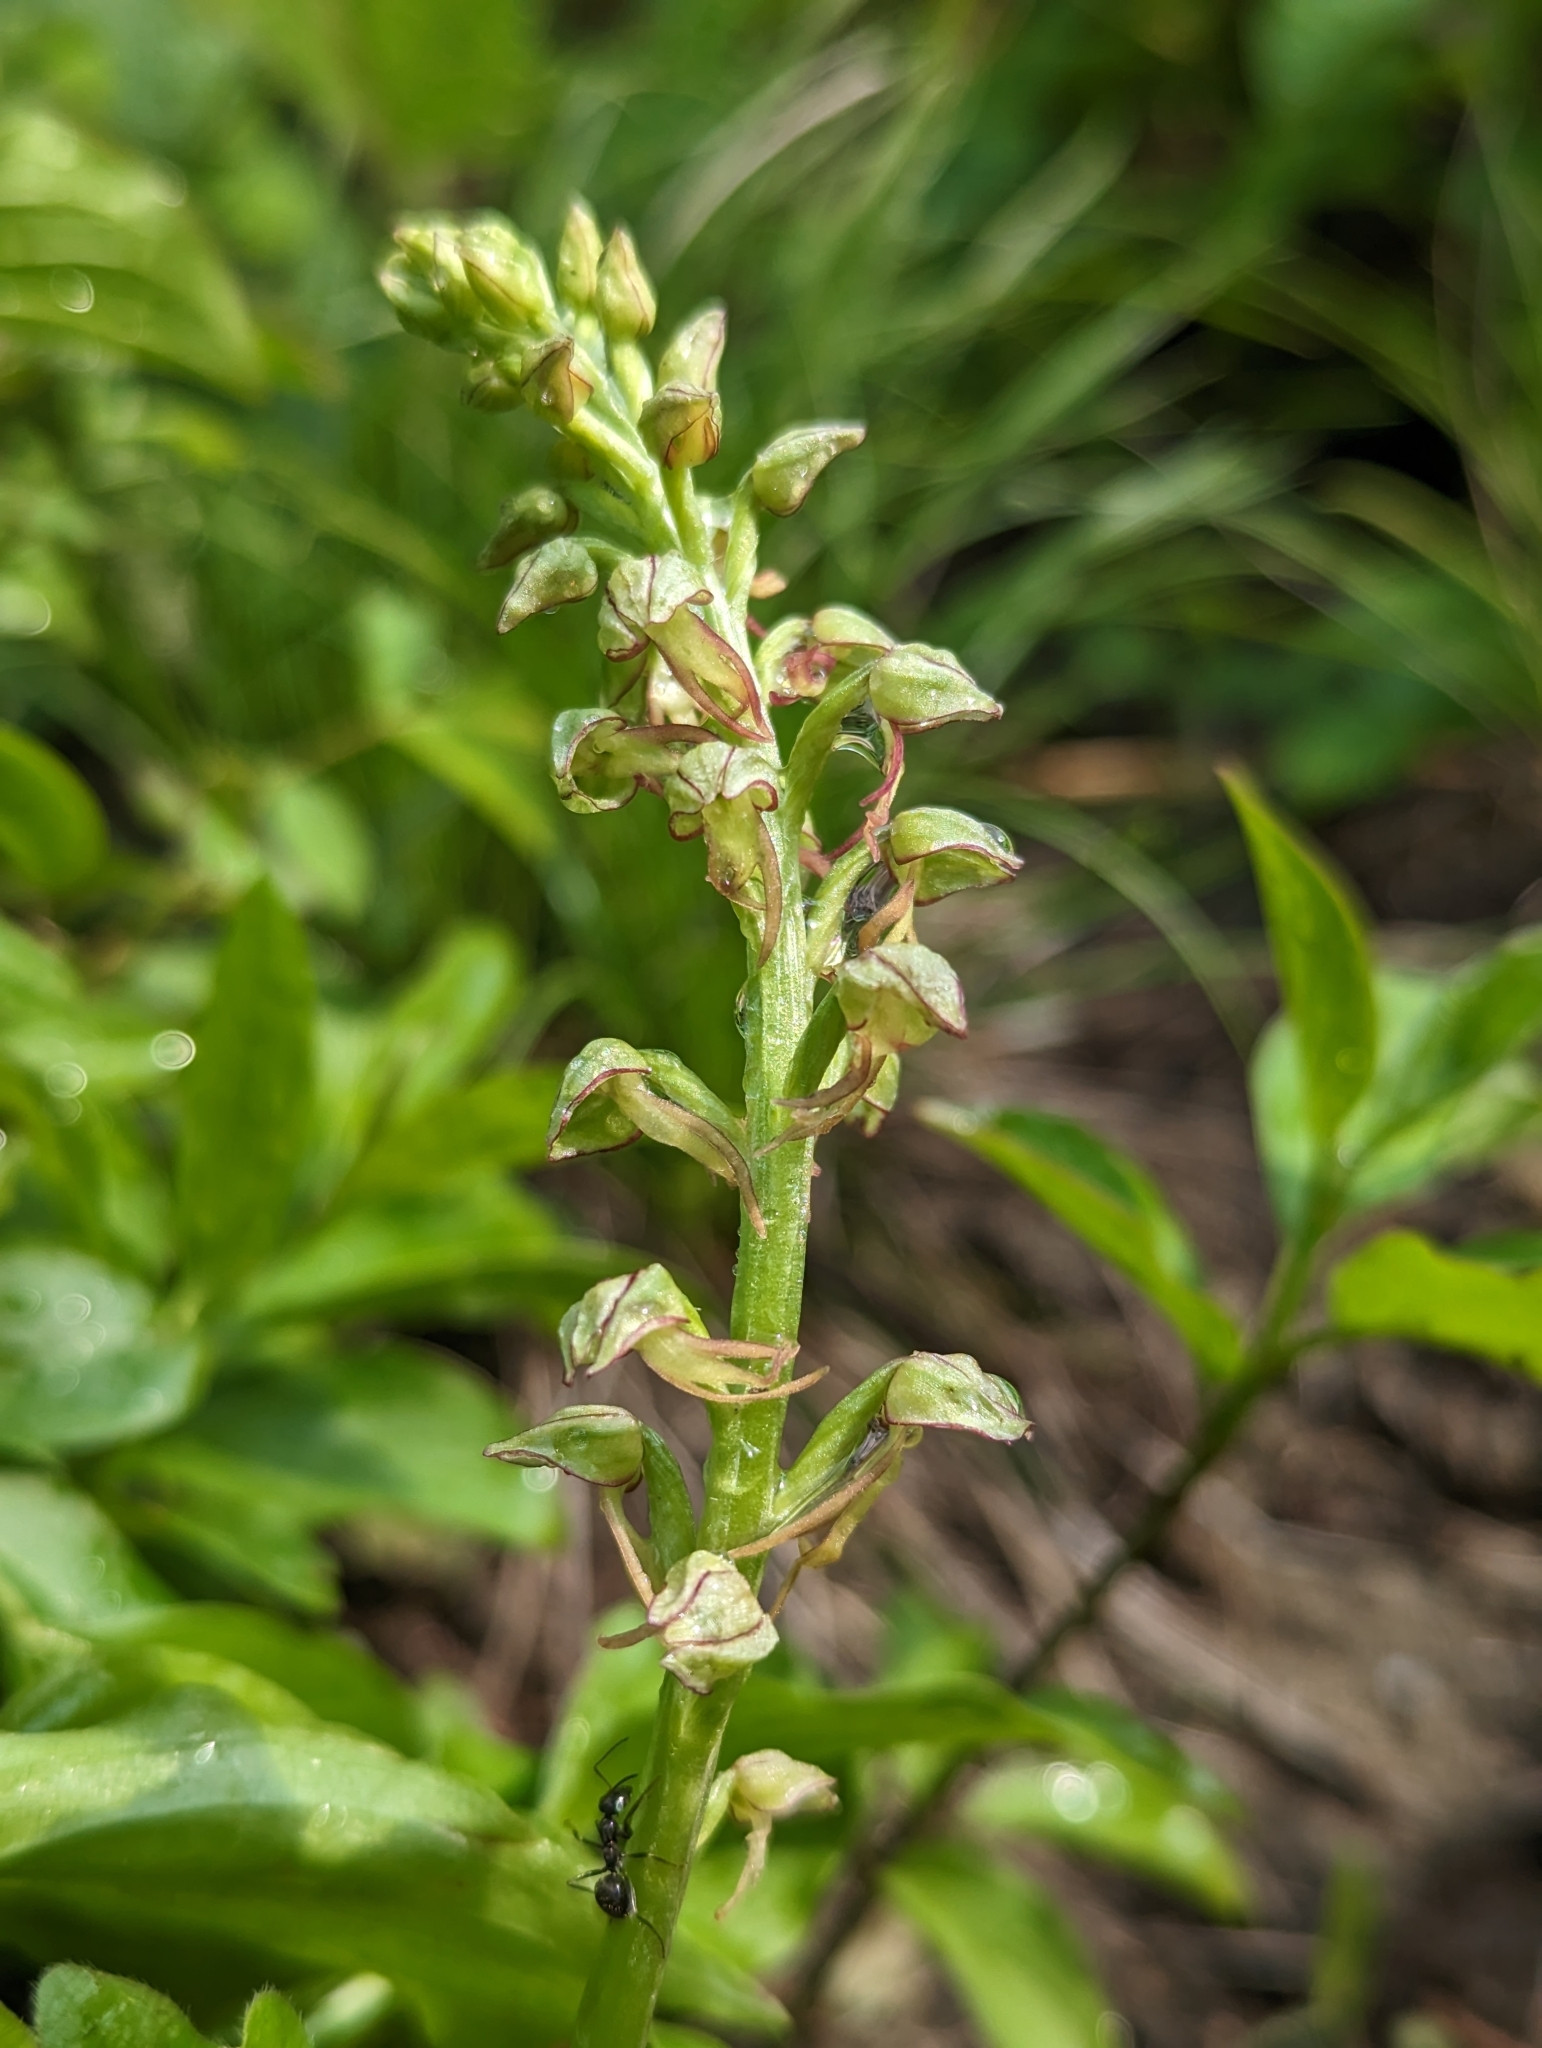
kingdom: Plantae
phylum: Tracheophyta
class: Liliopsida
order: Asparagales
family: Orchidaceae
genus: Orchis
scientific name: Orchis anthropophora
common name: Man orchid
